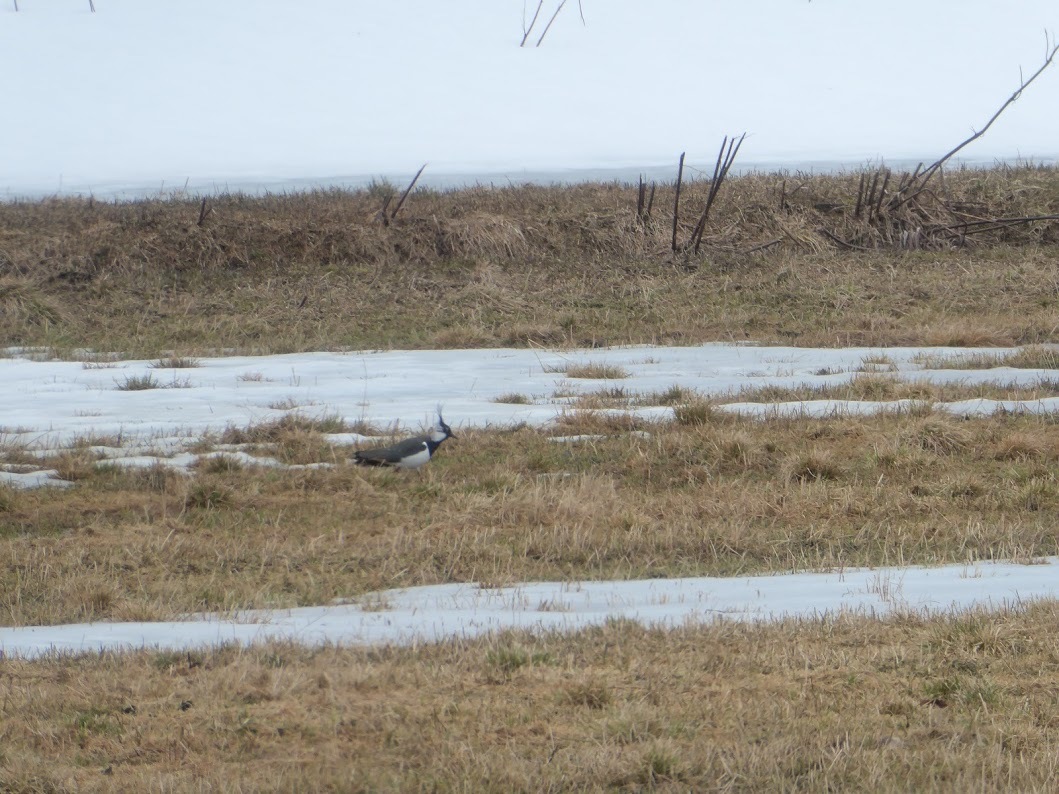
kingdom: Animalia
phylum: Chordata
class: Aves
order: Charadriiformes
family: Charadriidae
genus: Vanellus
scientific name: Vanellus vanellus
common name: Northern lapwing
